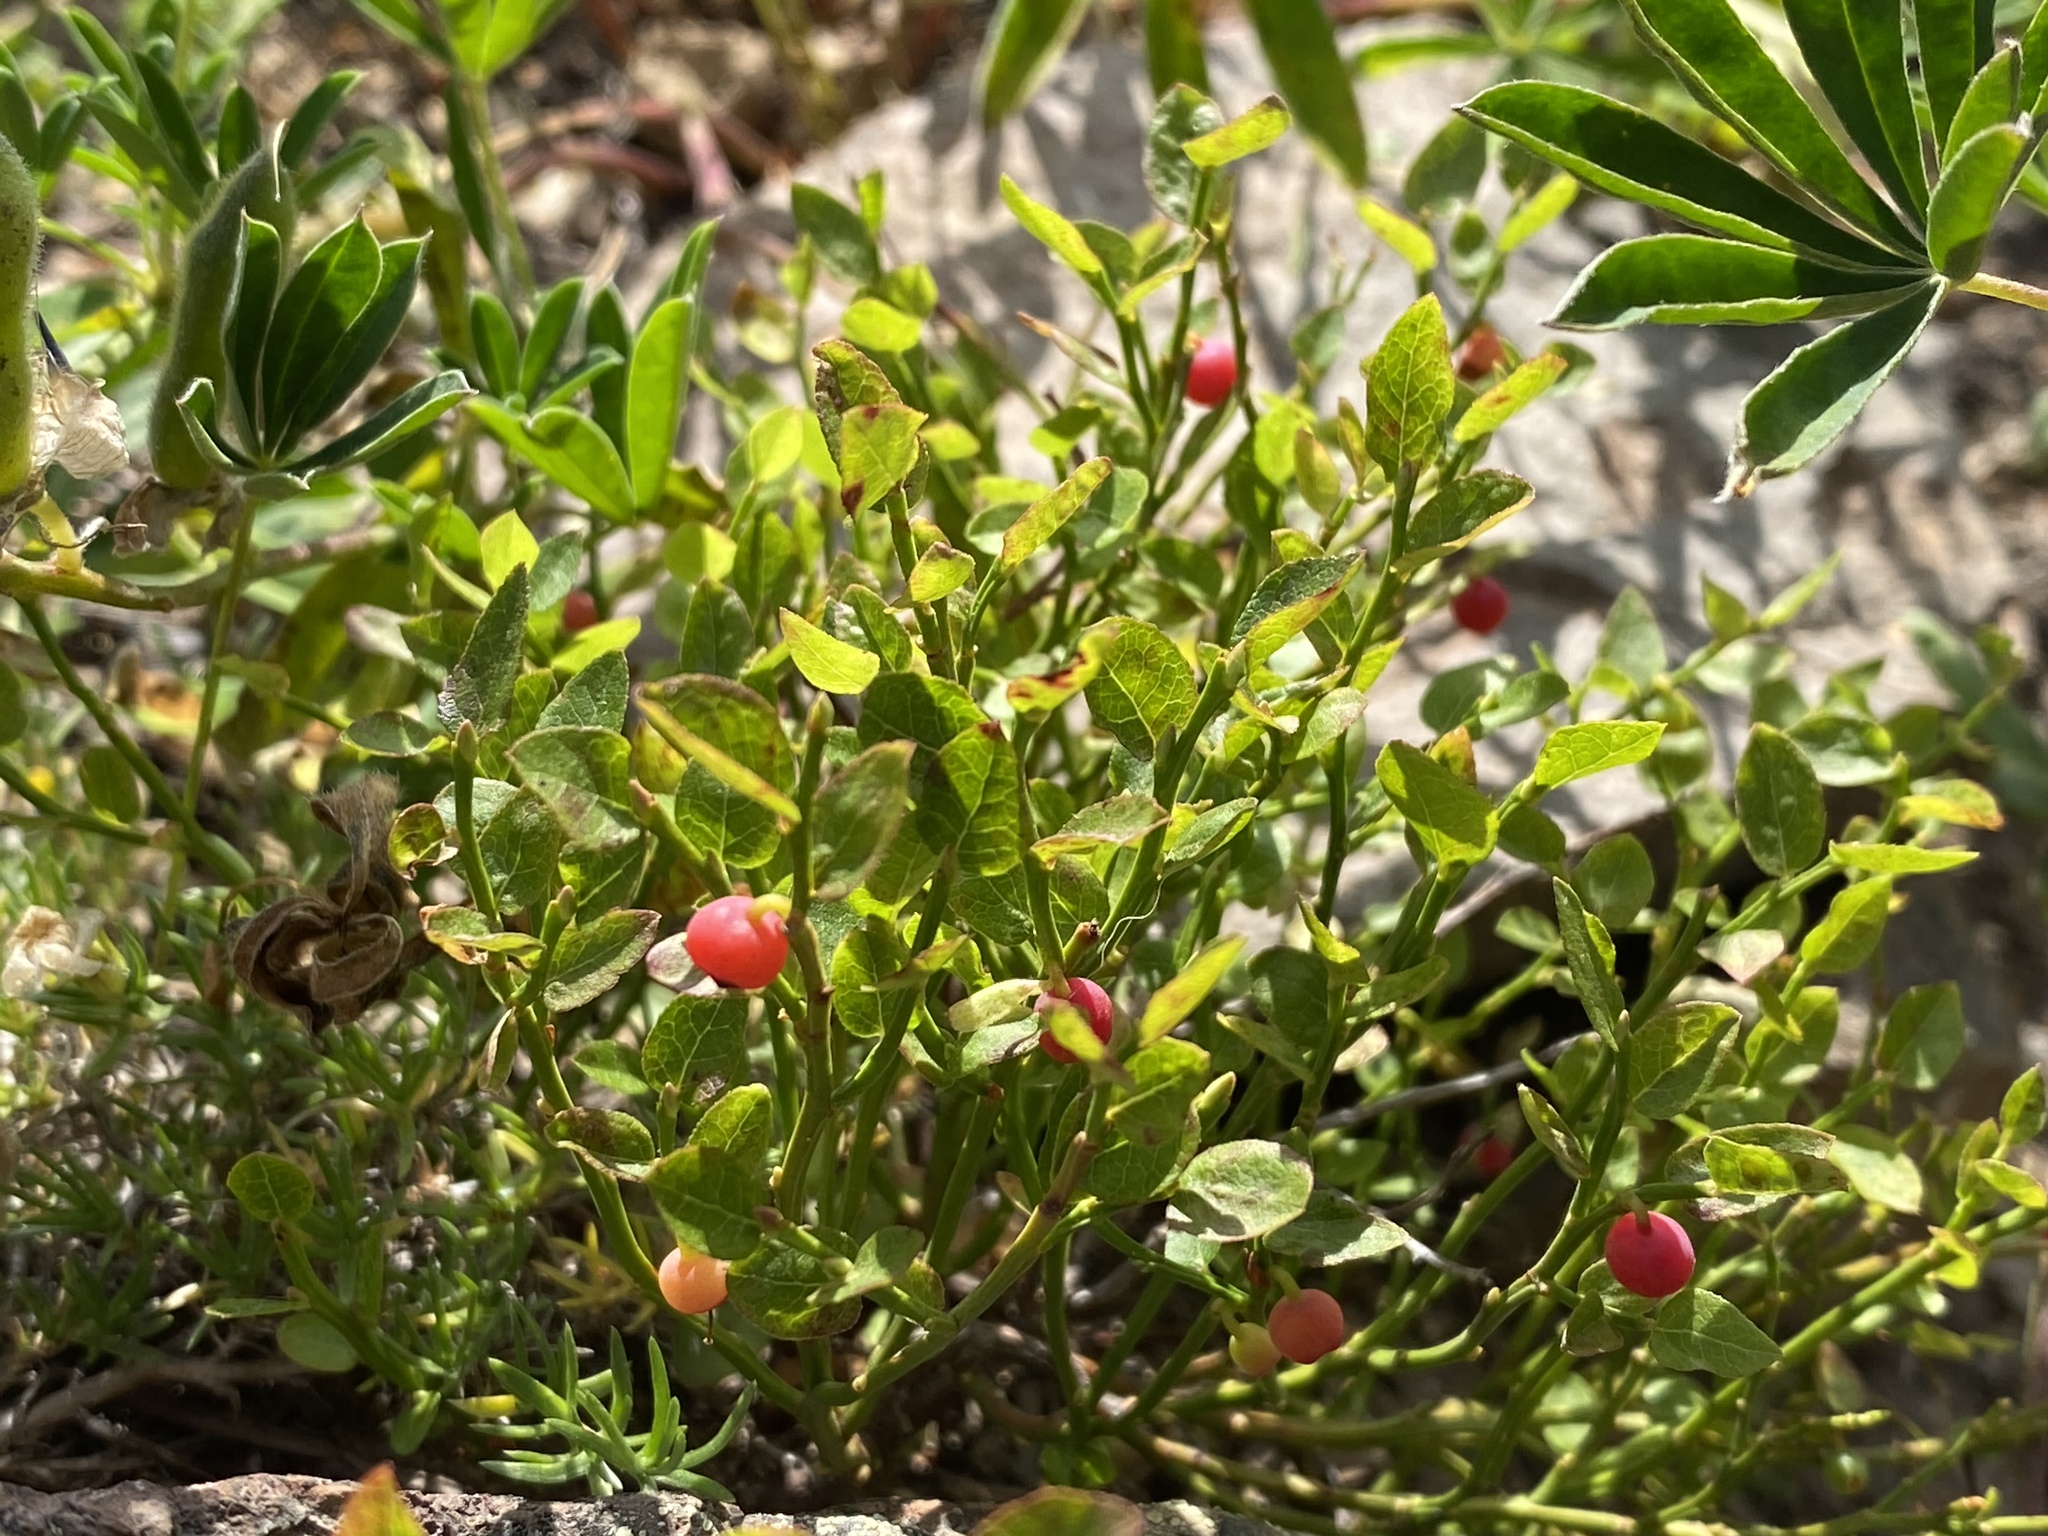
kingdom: Plantae
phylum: Tracheophyta
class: Magnoliopsida
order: Ericales
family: Ericaceae
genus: Vaccinium
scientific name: Vaccinium scoparium
